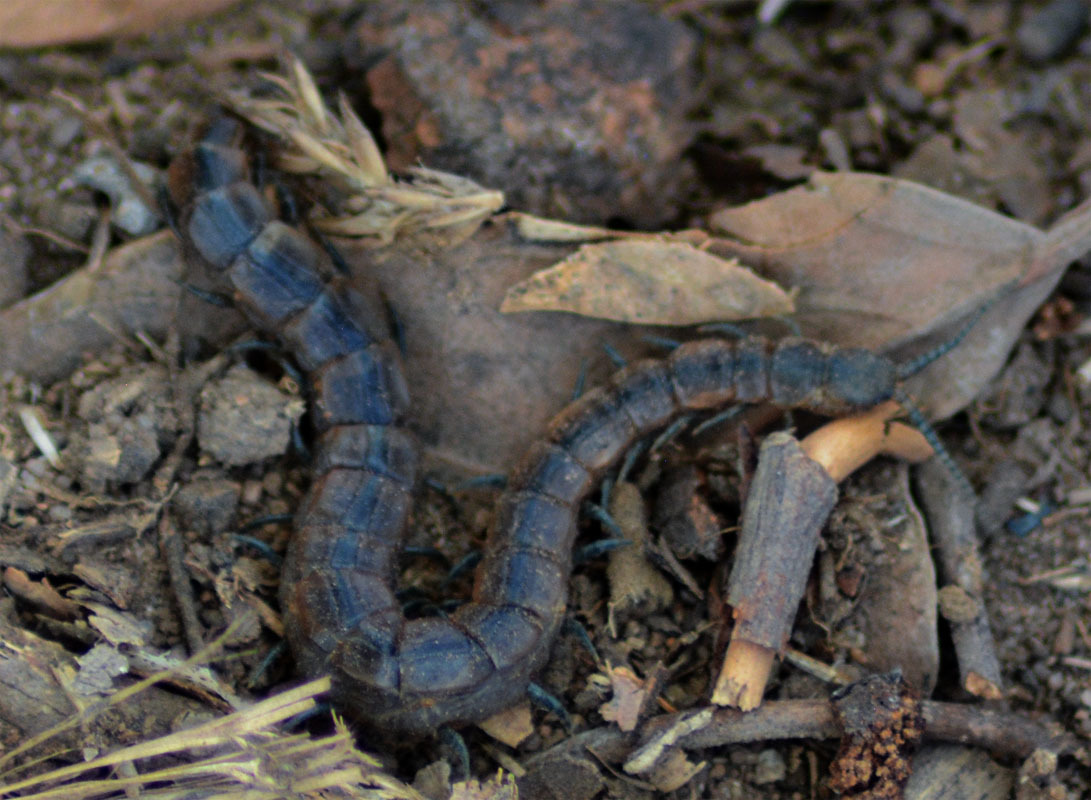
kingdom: Animalia
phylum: Arthropoda
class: Chilopoda
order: Scolopendromorpha
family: Scolopendridae
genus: Arthrorhabdus
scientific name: Arthrorhabdus pygmaeus
